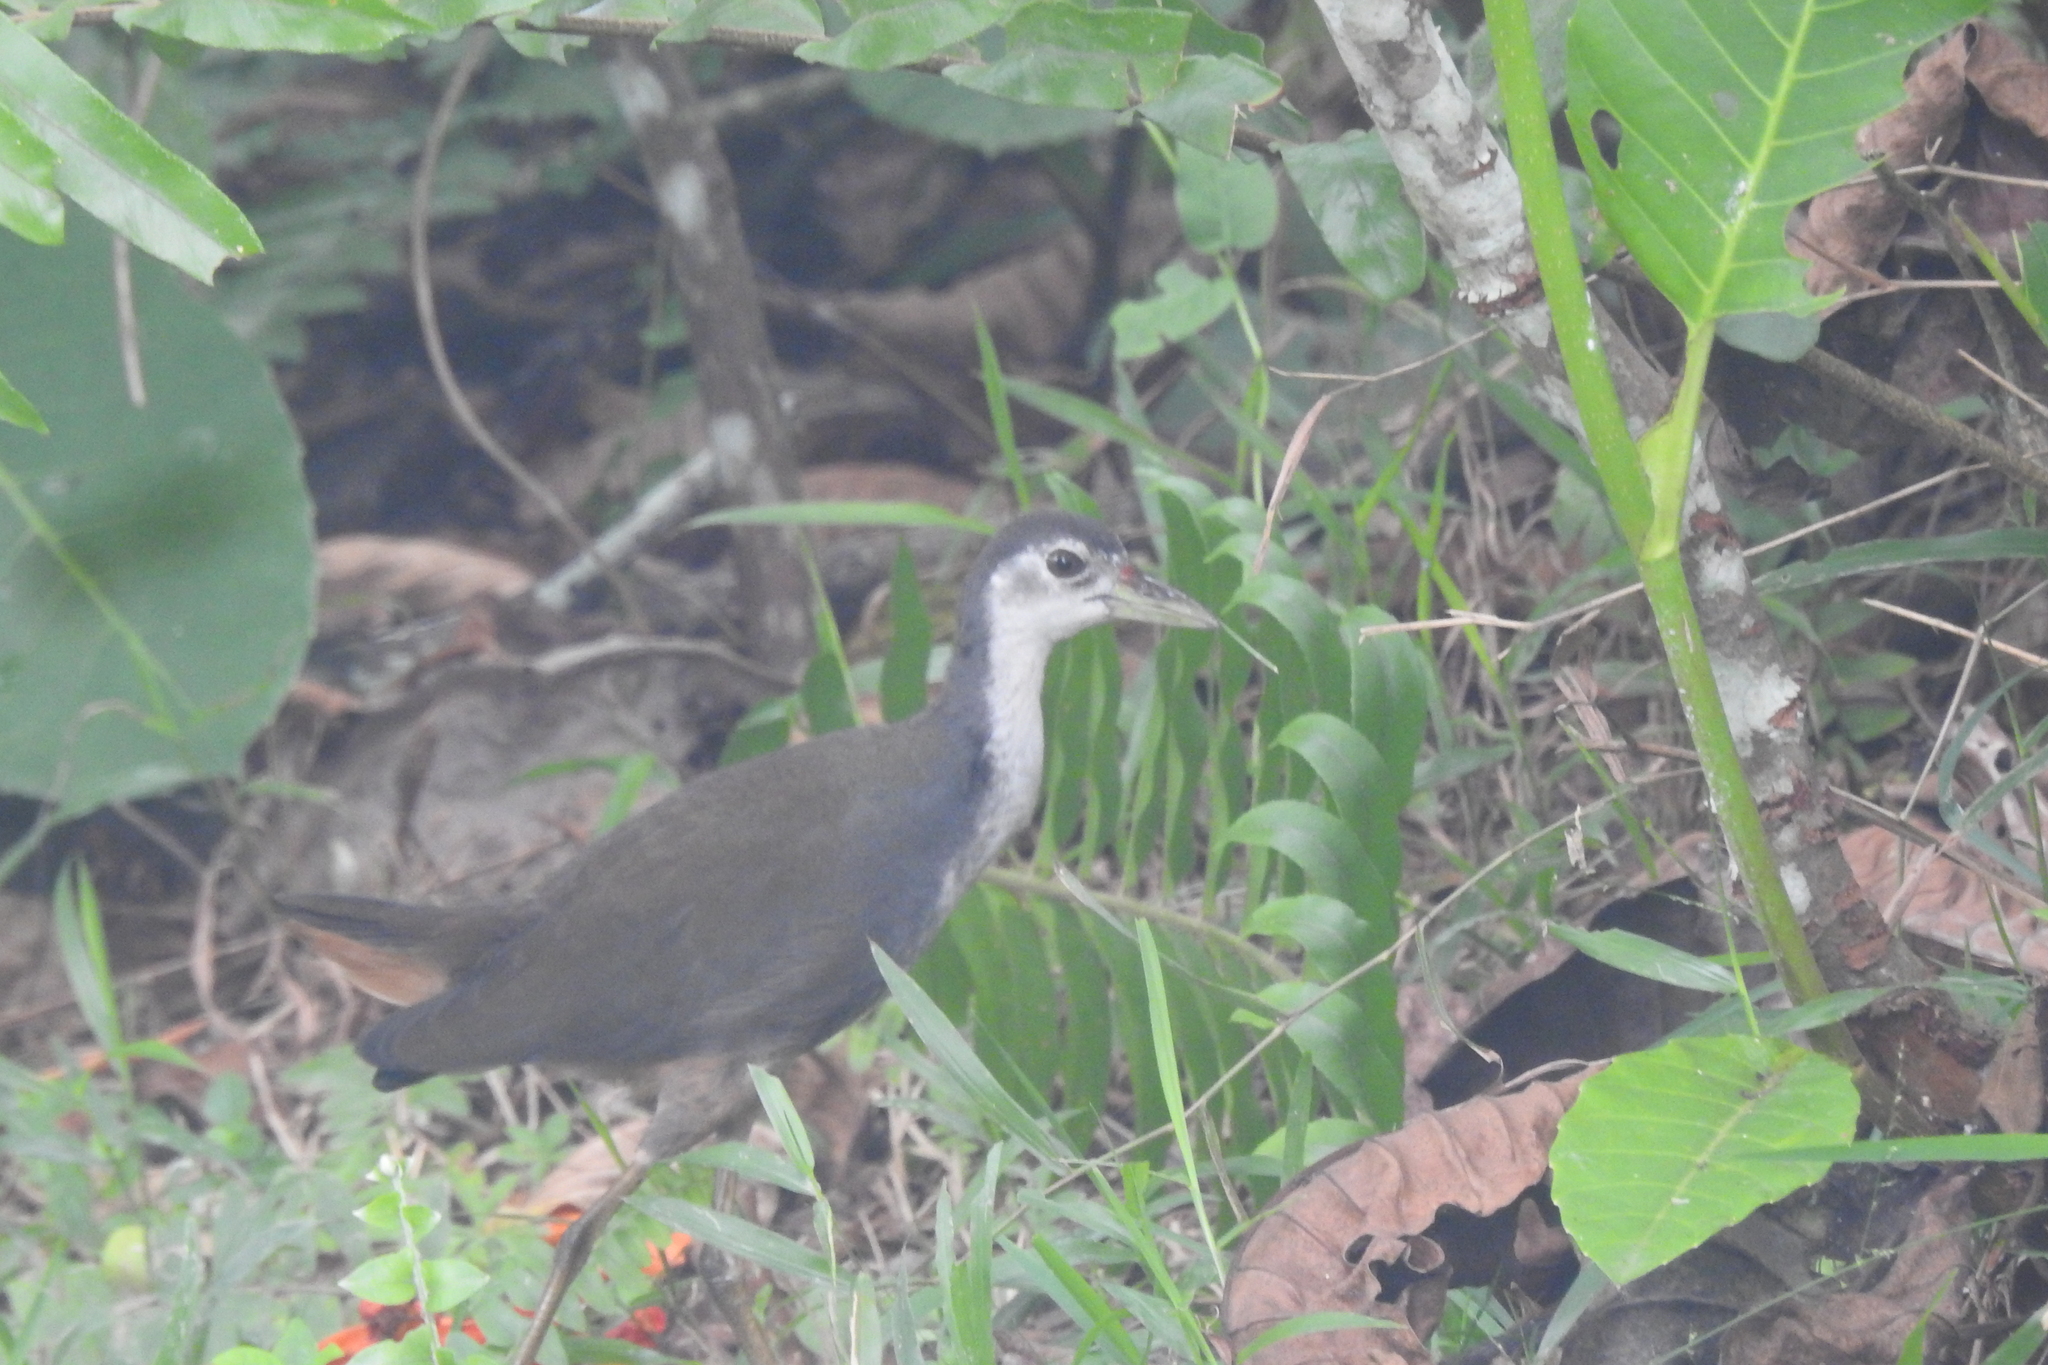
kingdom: Animalia
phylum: Chordata
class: Aves
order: Gruiformes
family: Rallidae
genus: Amaurornis
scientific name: Amaurornis phoenicurus
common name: White-breasted waterhen
